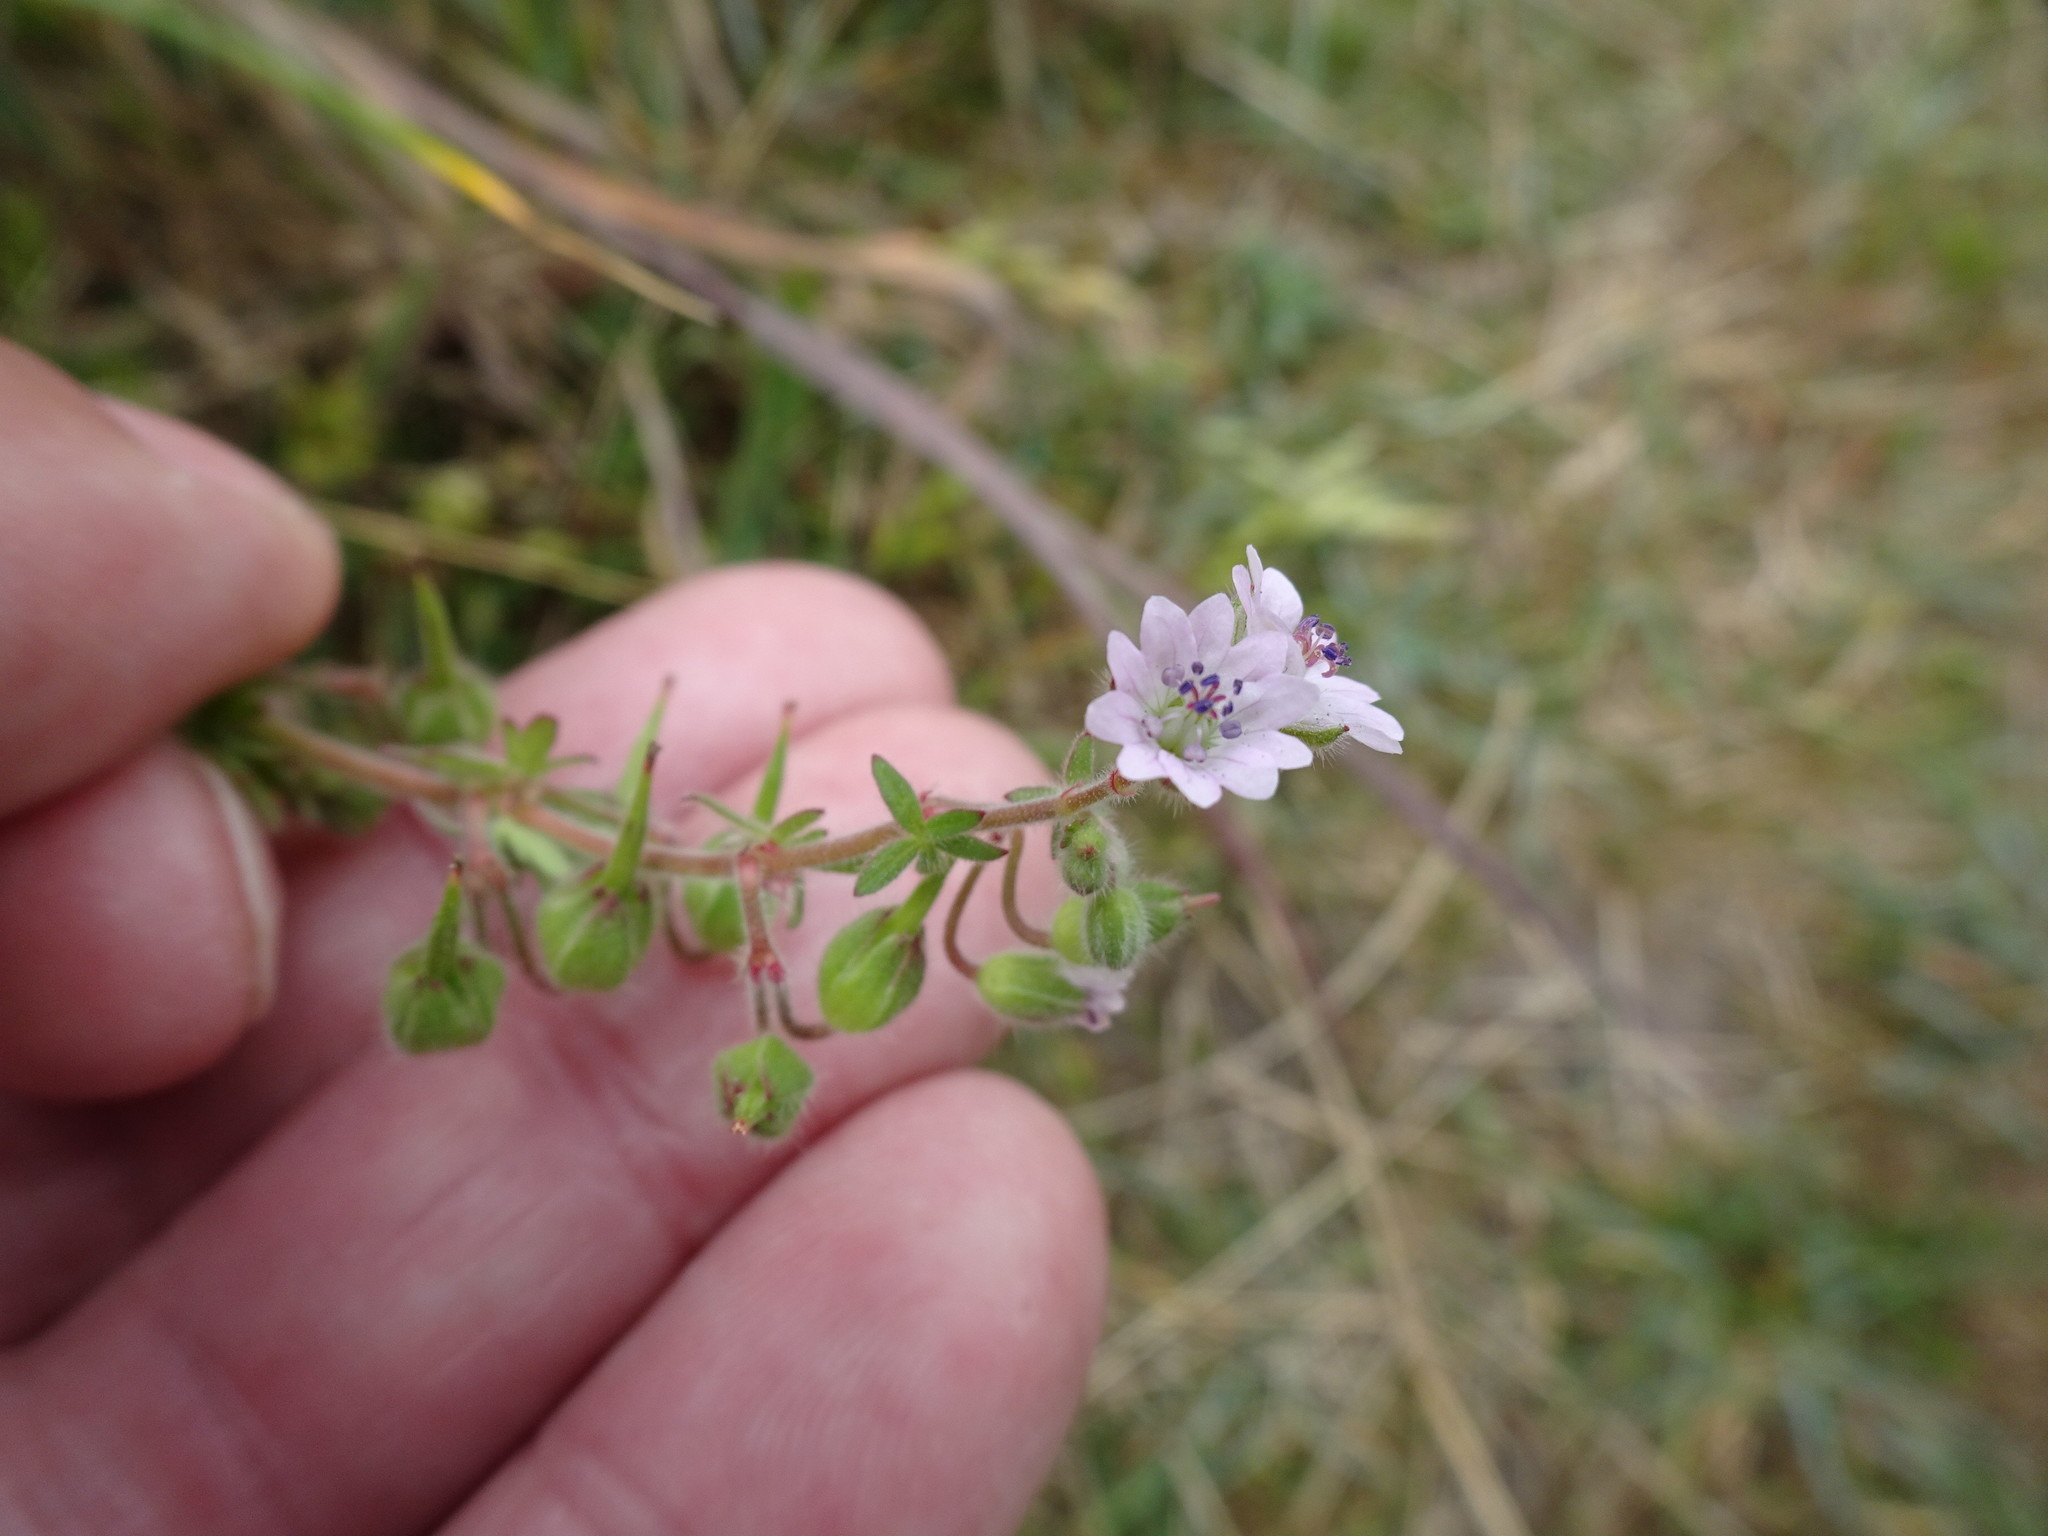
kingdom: Plantae
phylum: Tracheophyta
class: Magnoliopsida
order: Geraniales
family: Geraniaceae
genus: Geranium
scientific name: Geranium molle
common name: Dove's-foot crane's-bill
